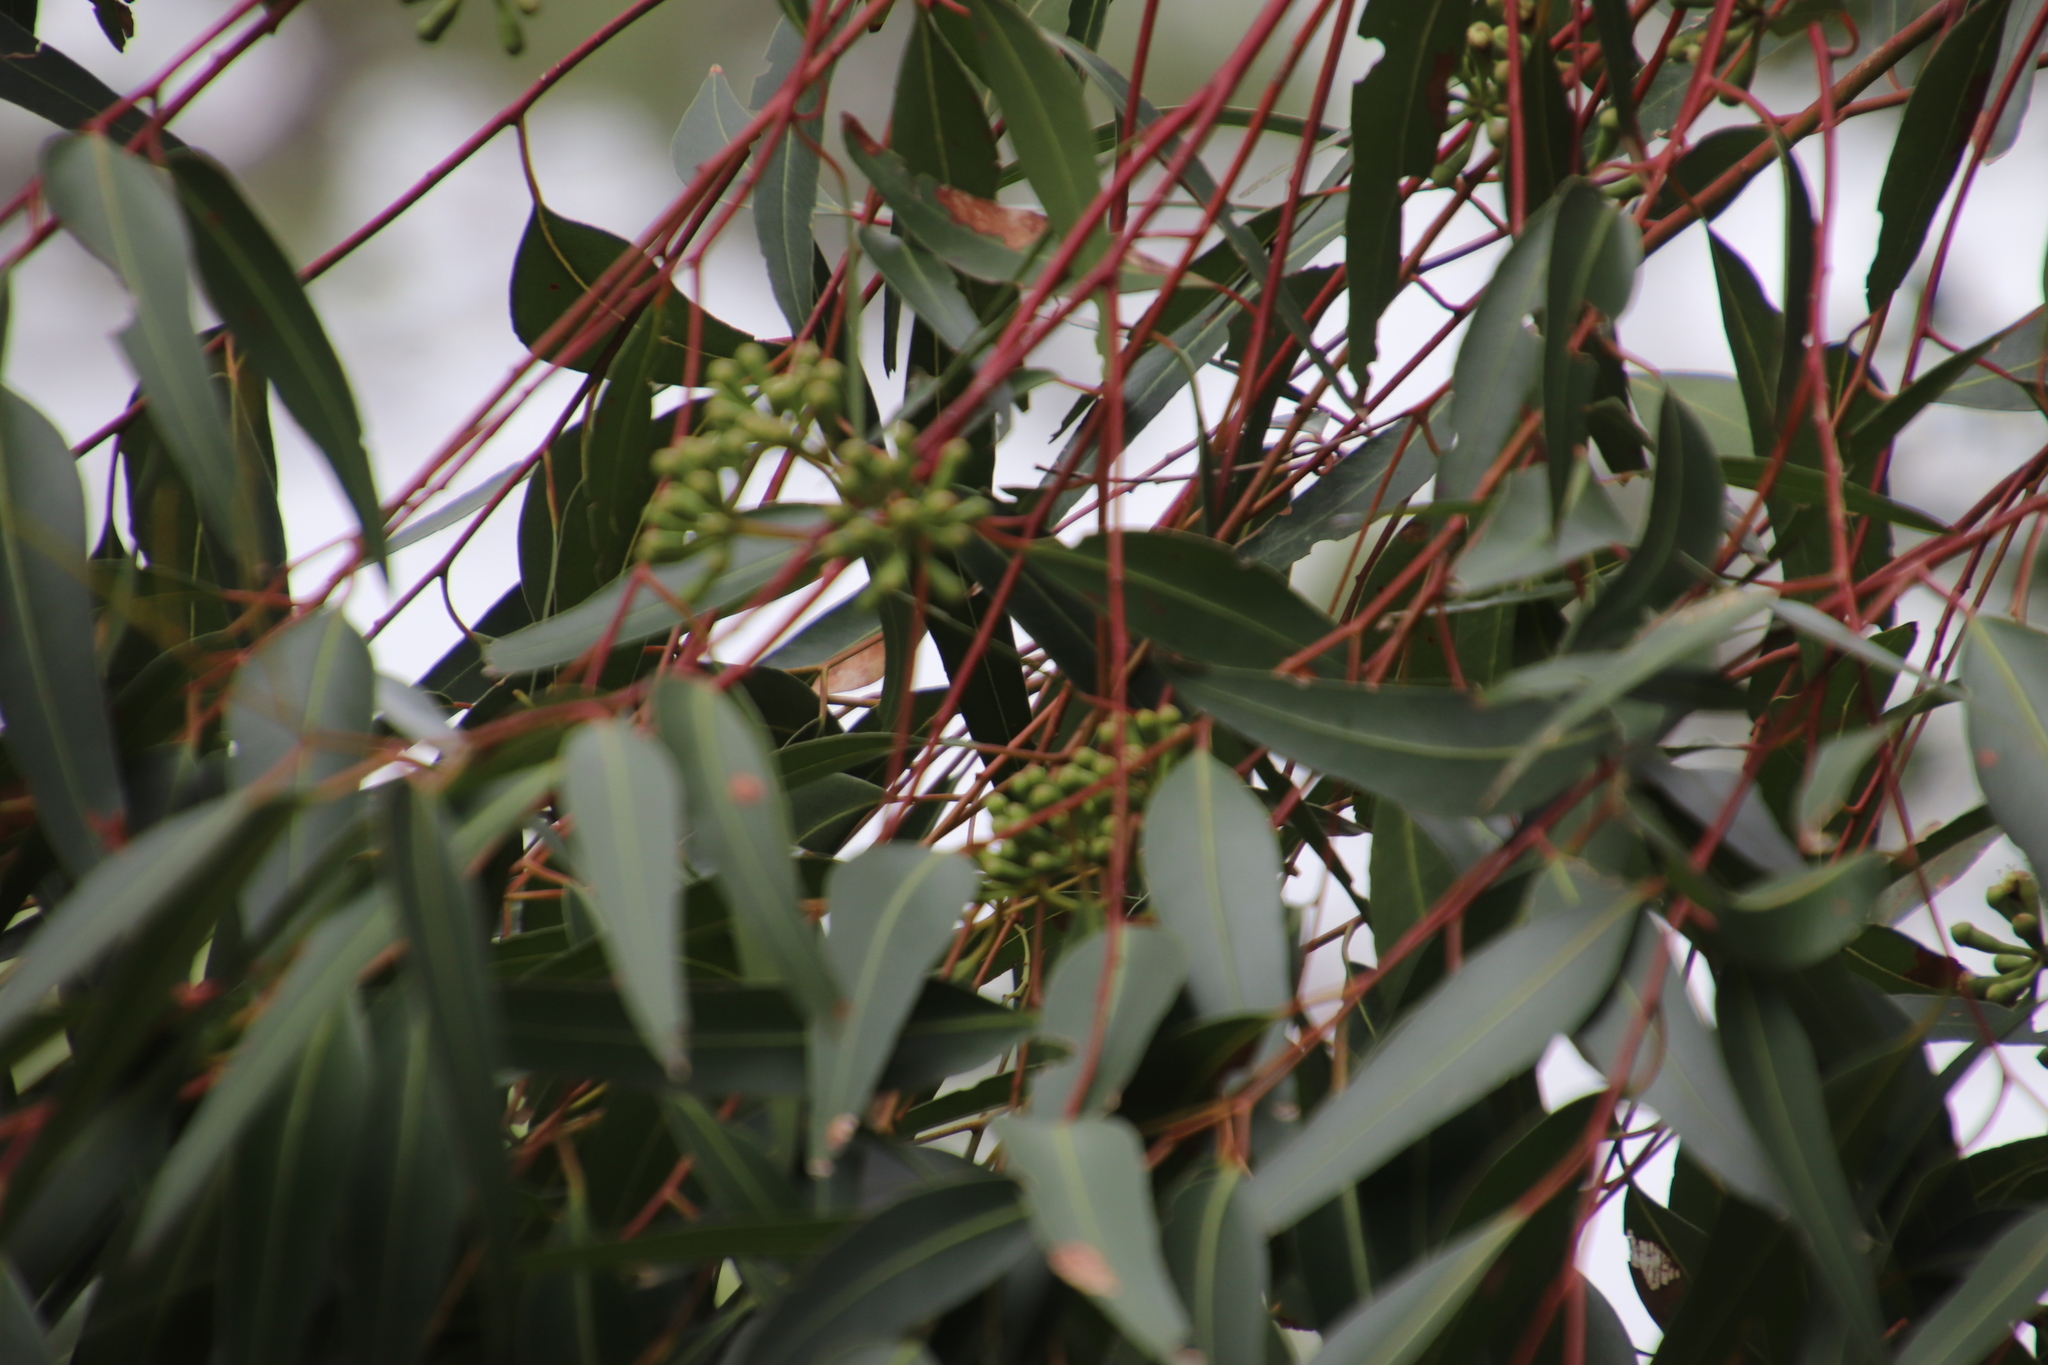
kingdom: Plantae
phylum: Tracheophyta
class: Magnoliopsida
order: Myrtales
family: Myrtaceae
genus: Eucalyptus
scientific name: Eucalyptus cladocalyx
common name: Sugargum
